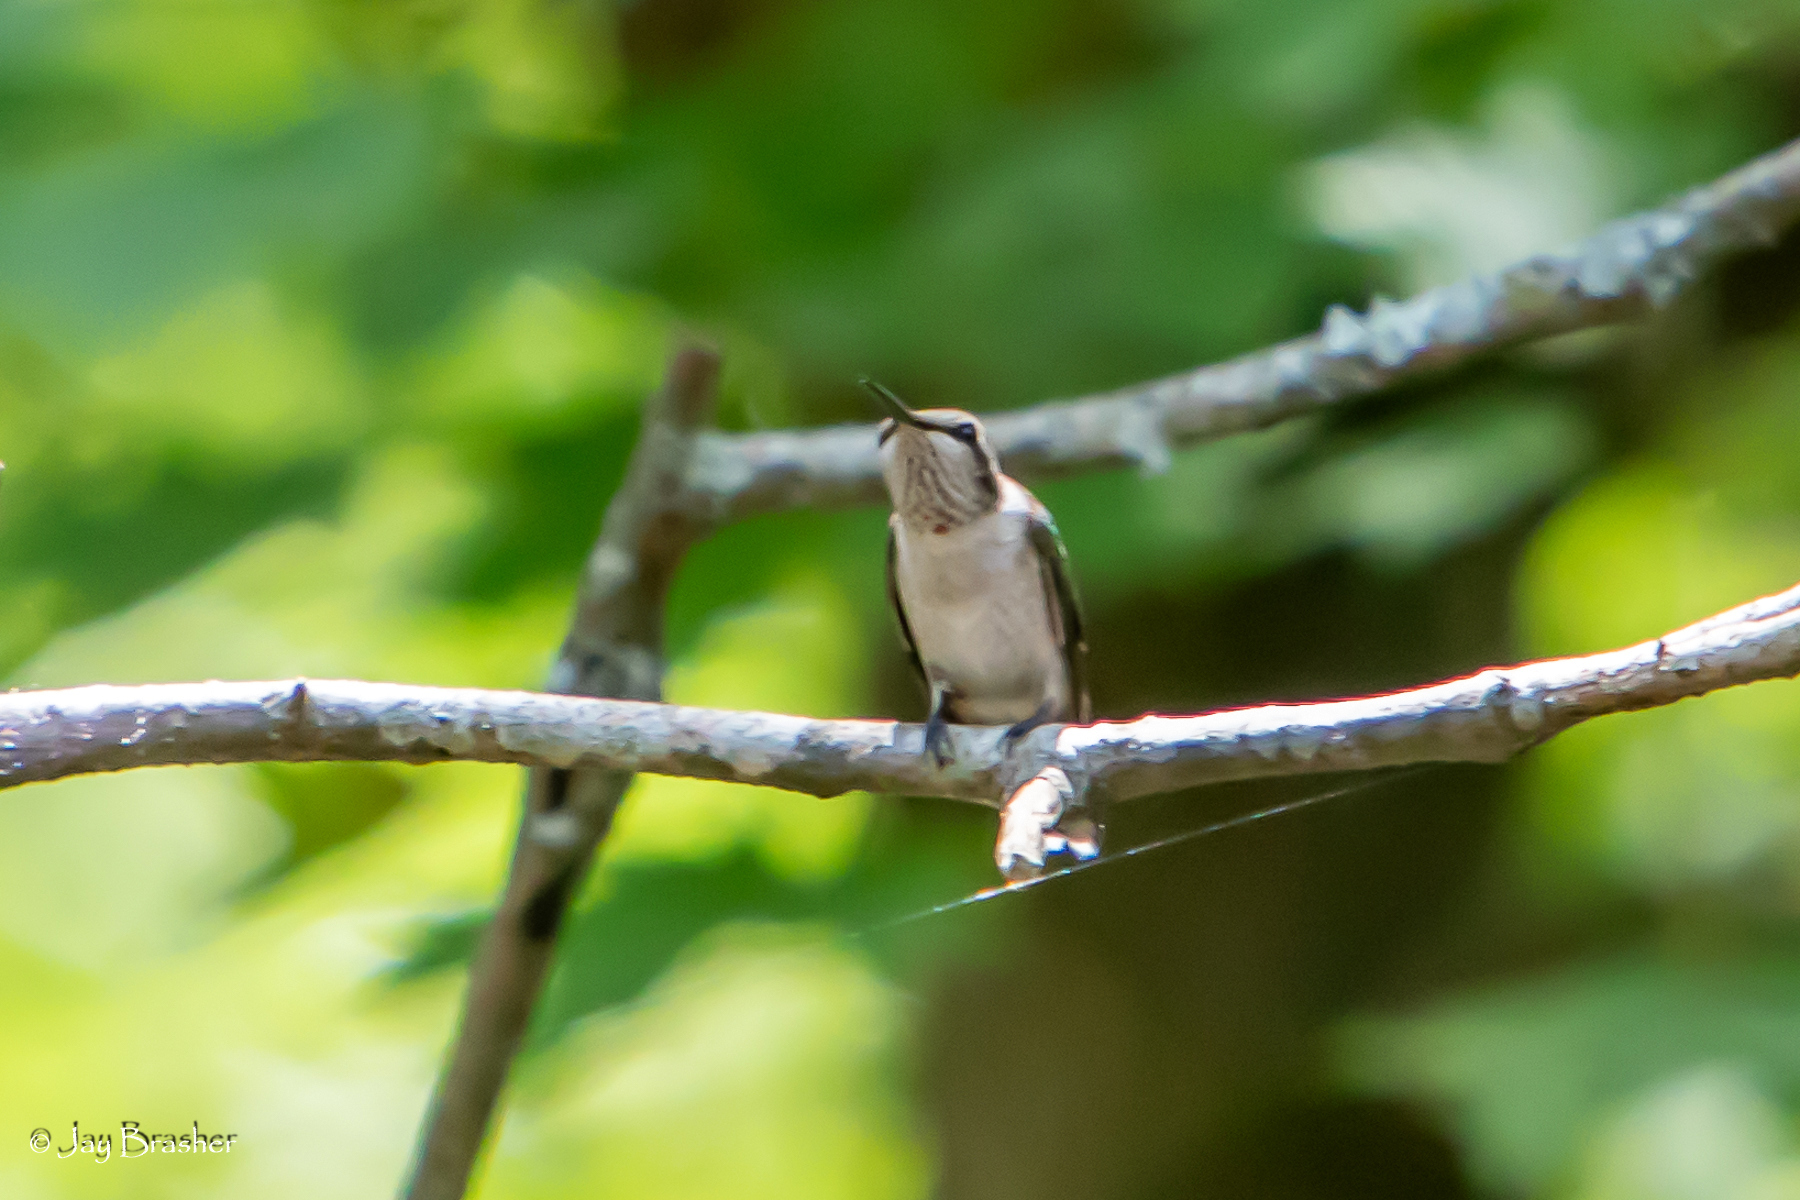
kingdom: Animalia
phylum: Chordata
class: Aves
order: Apodiformes
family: Trochilidae
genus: Archilochus
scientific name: Archilochus colubris
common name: Ruby-throated hummingbird
